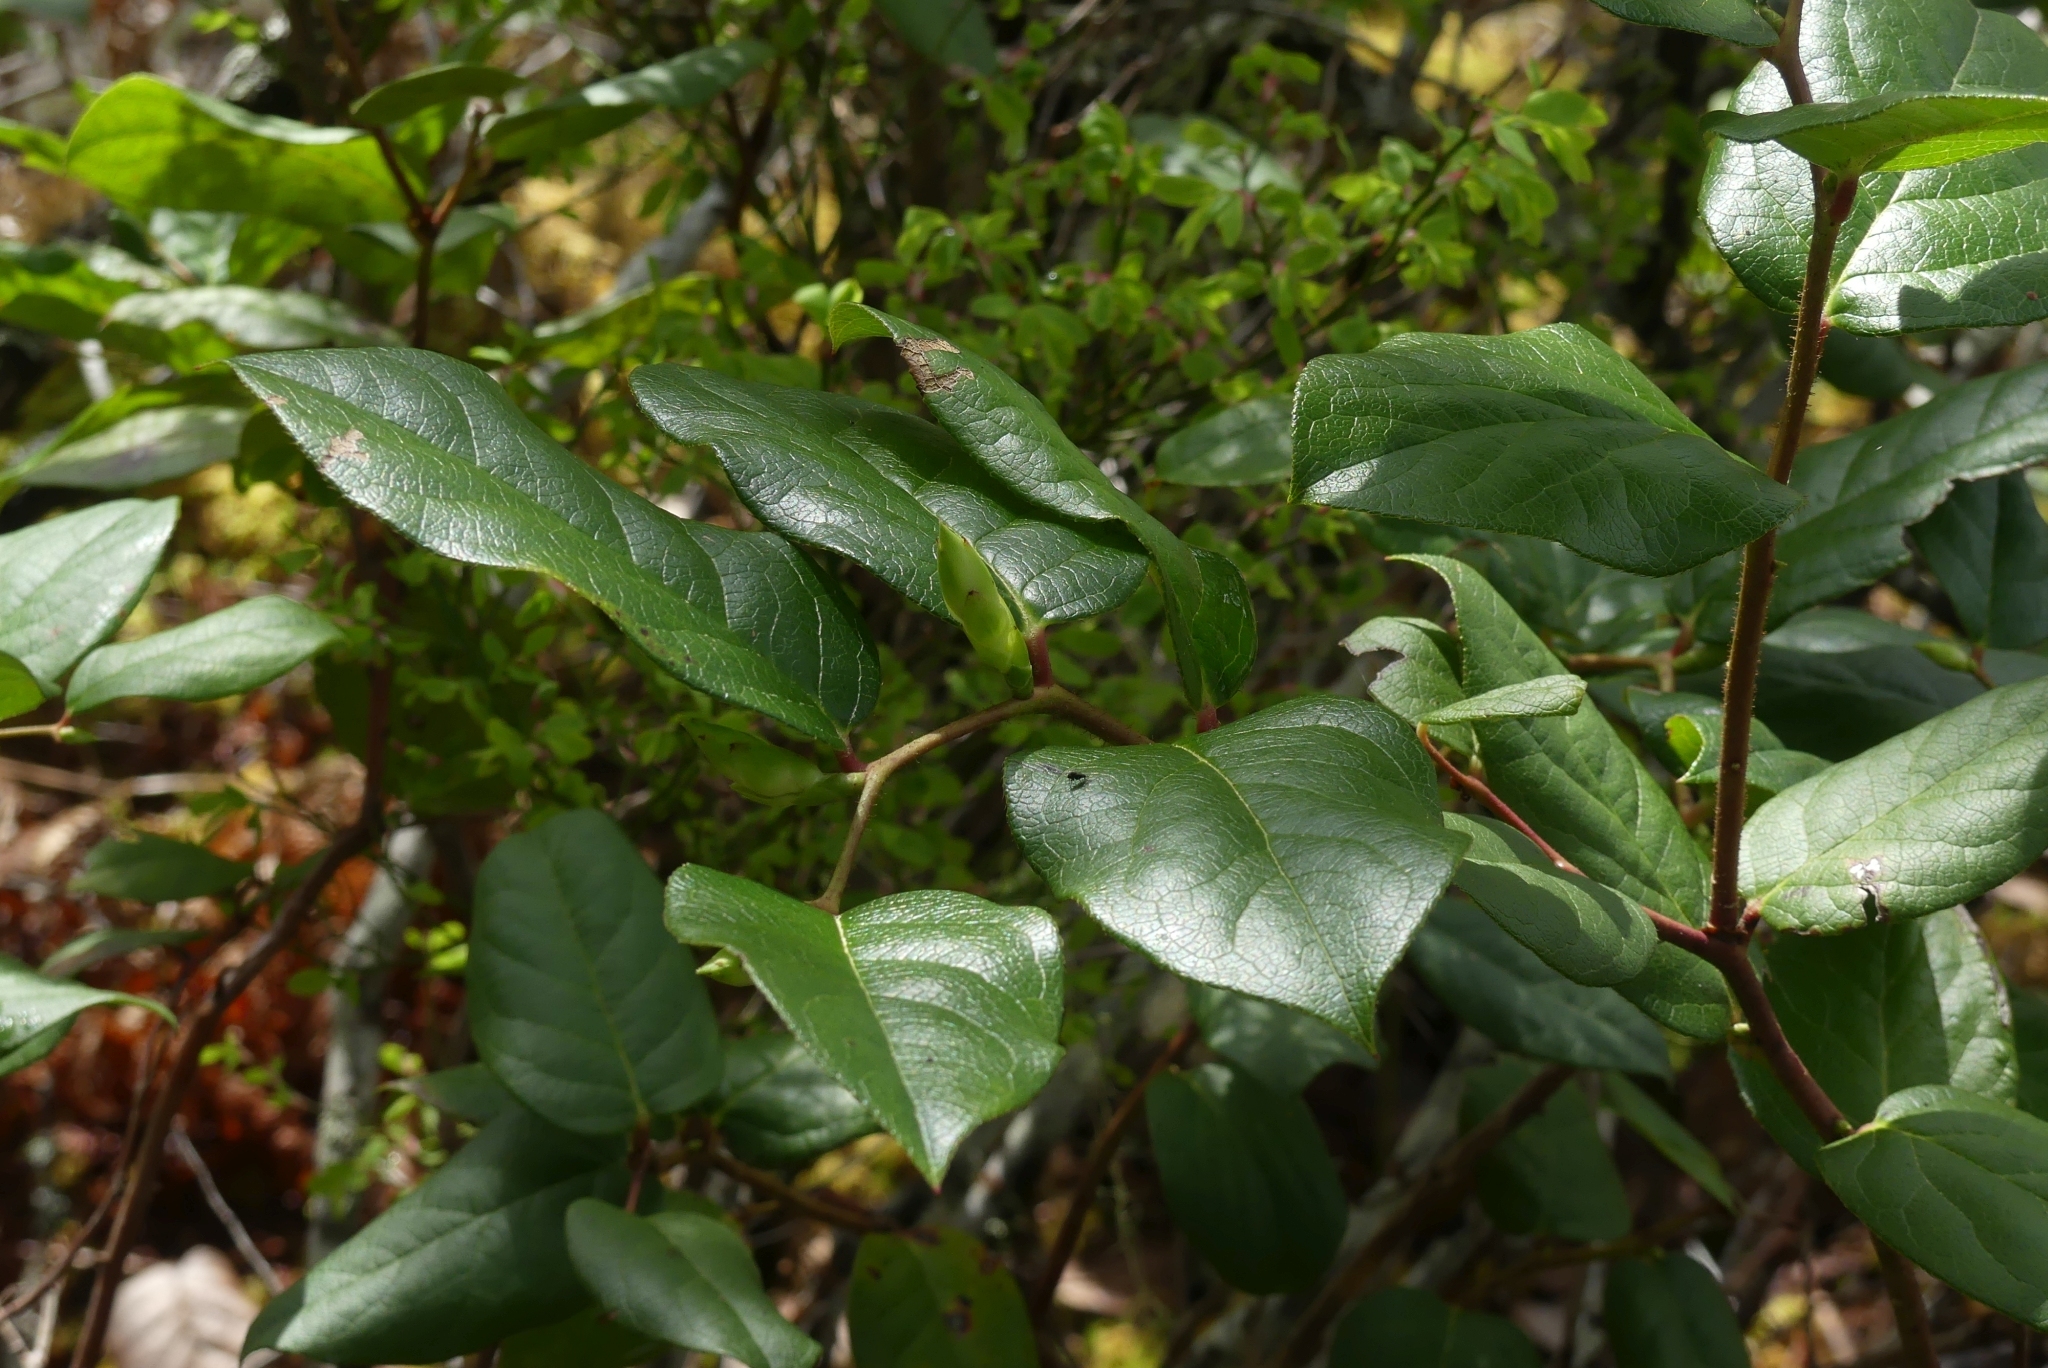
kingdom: Plantae
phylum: Tracheophyta
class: Magnoliopsida
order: Ericales
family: Ericaceae
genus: Gaultheria
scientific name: Gaultheria shallon
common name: Shallon
